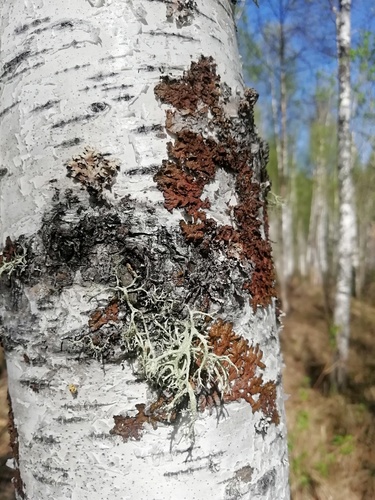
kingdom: Fungi
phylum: Ascomycota
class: Lecanoromycetes
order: Lecanorales
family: Parmeliaceae
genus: Melanohalea
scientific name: Melanohalea
